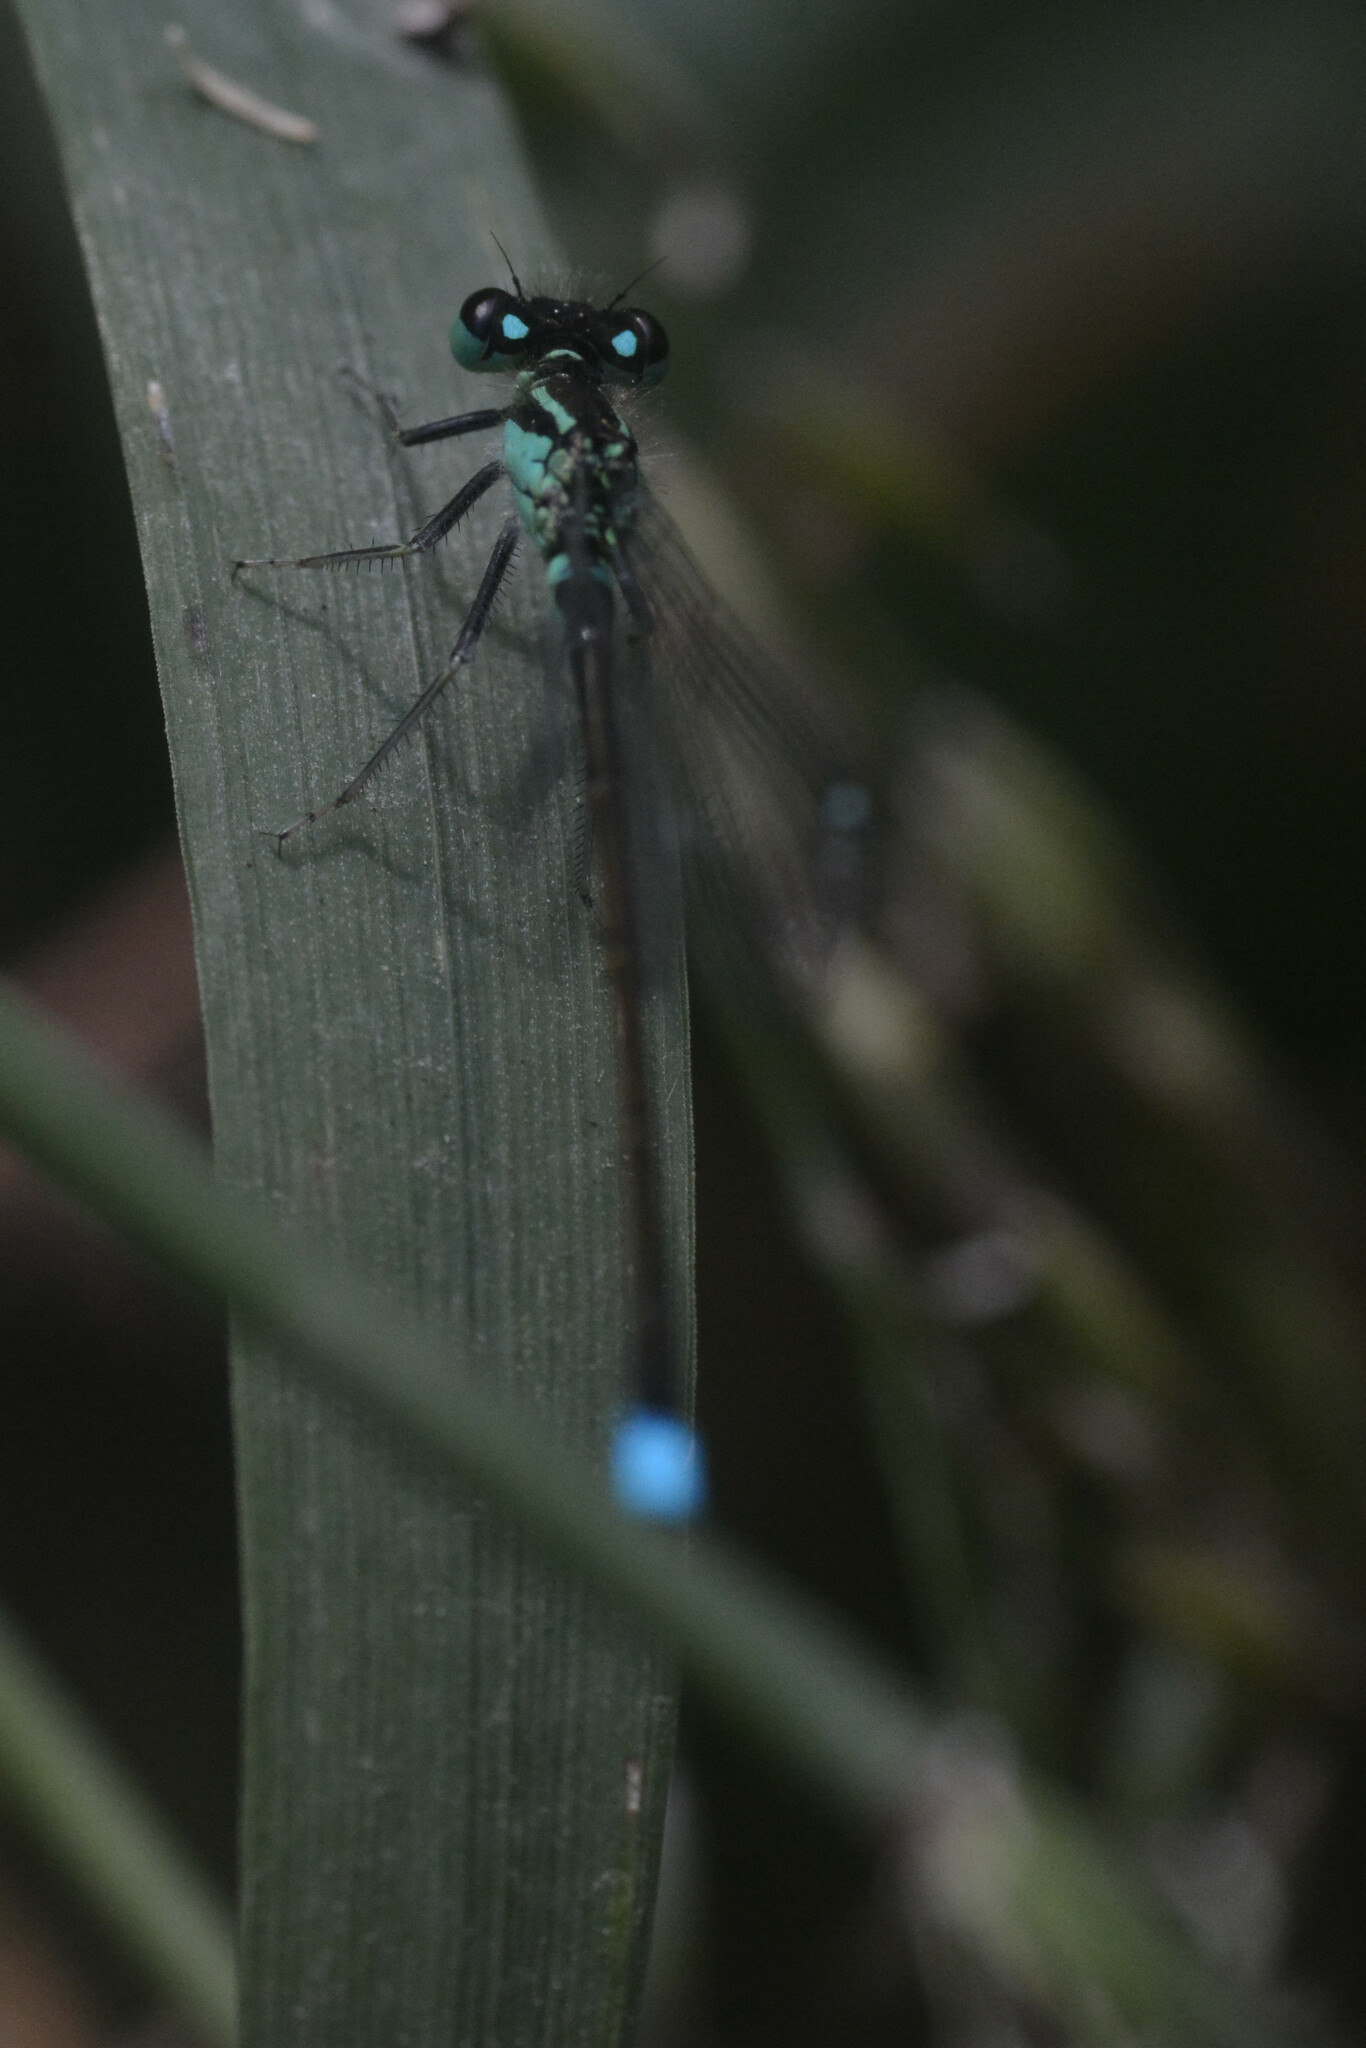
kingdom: Animalia
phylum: Arthropoda
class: Insecta
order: Odonata
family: Coenagrionidae
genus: Ischnura
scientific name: Ischnura elegans
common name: Blue-tailed damselfly
